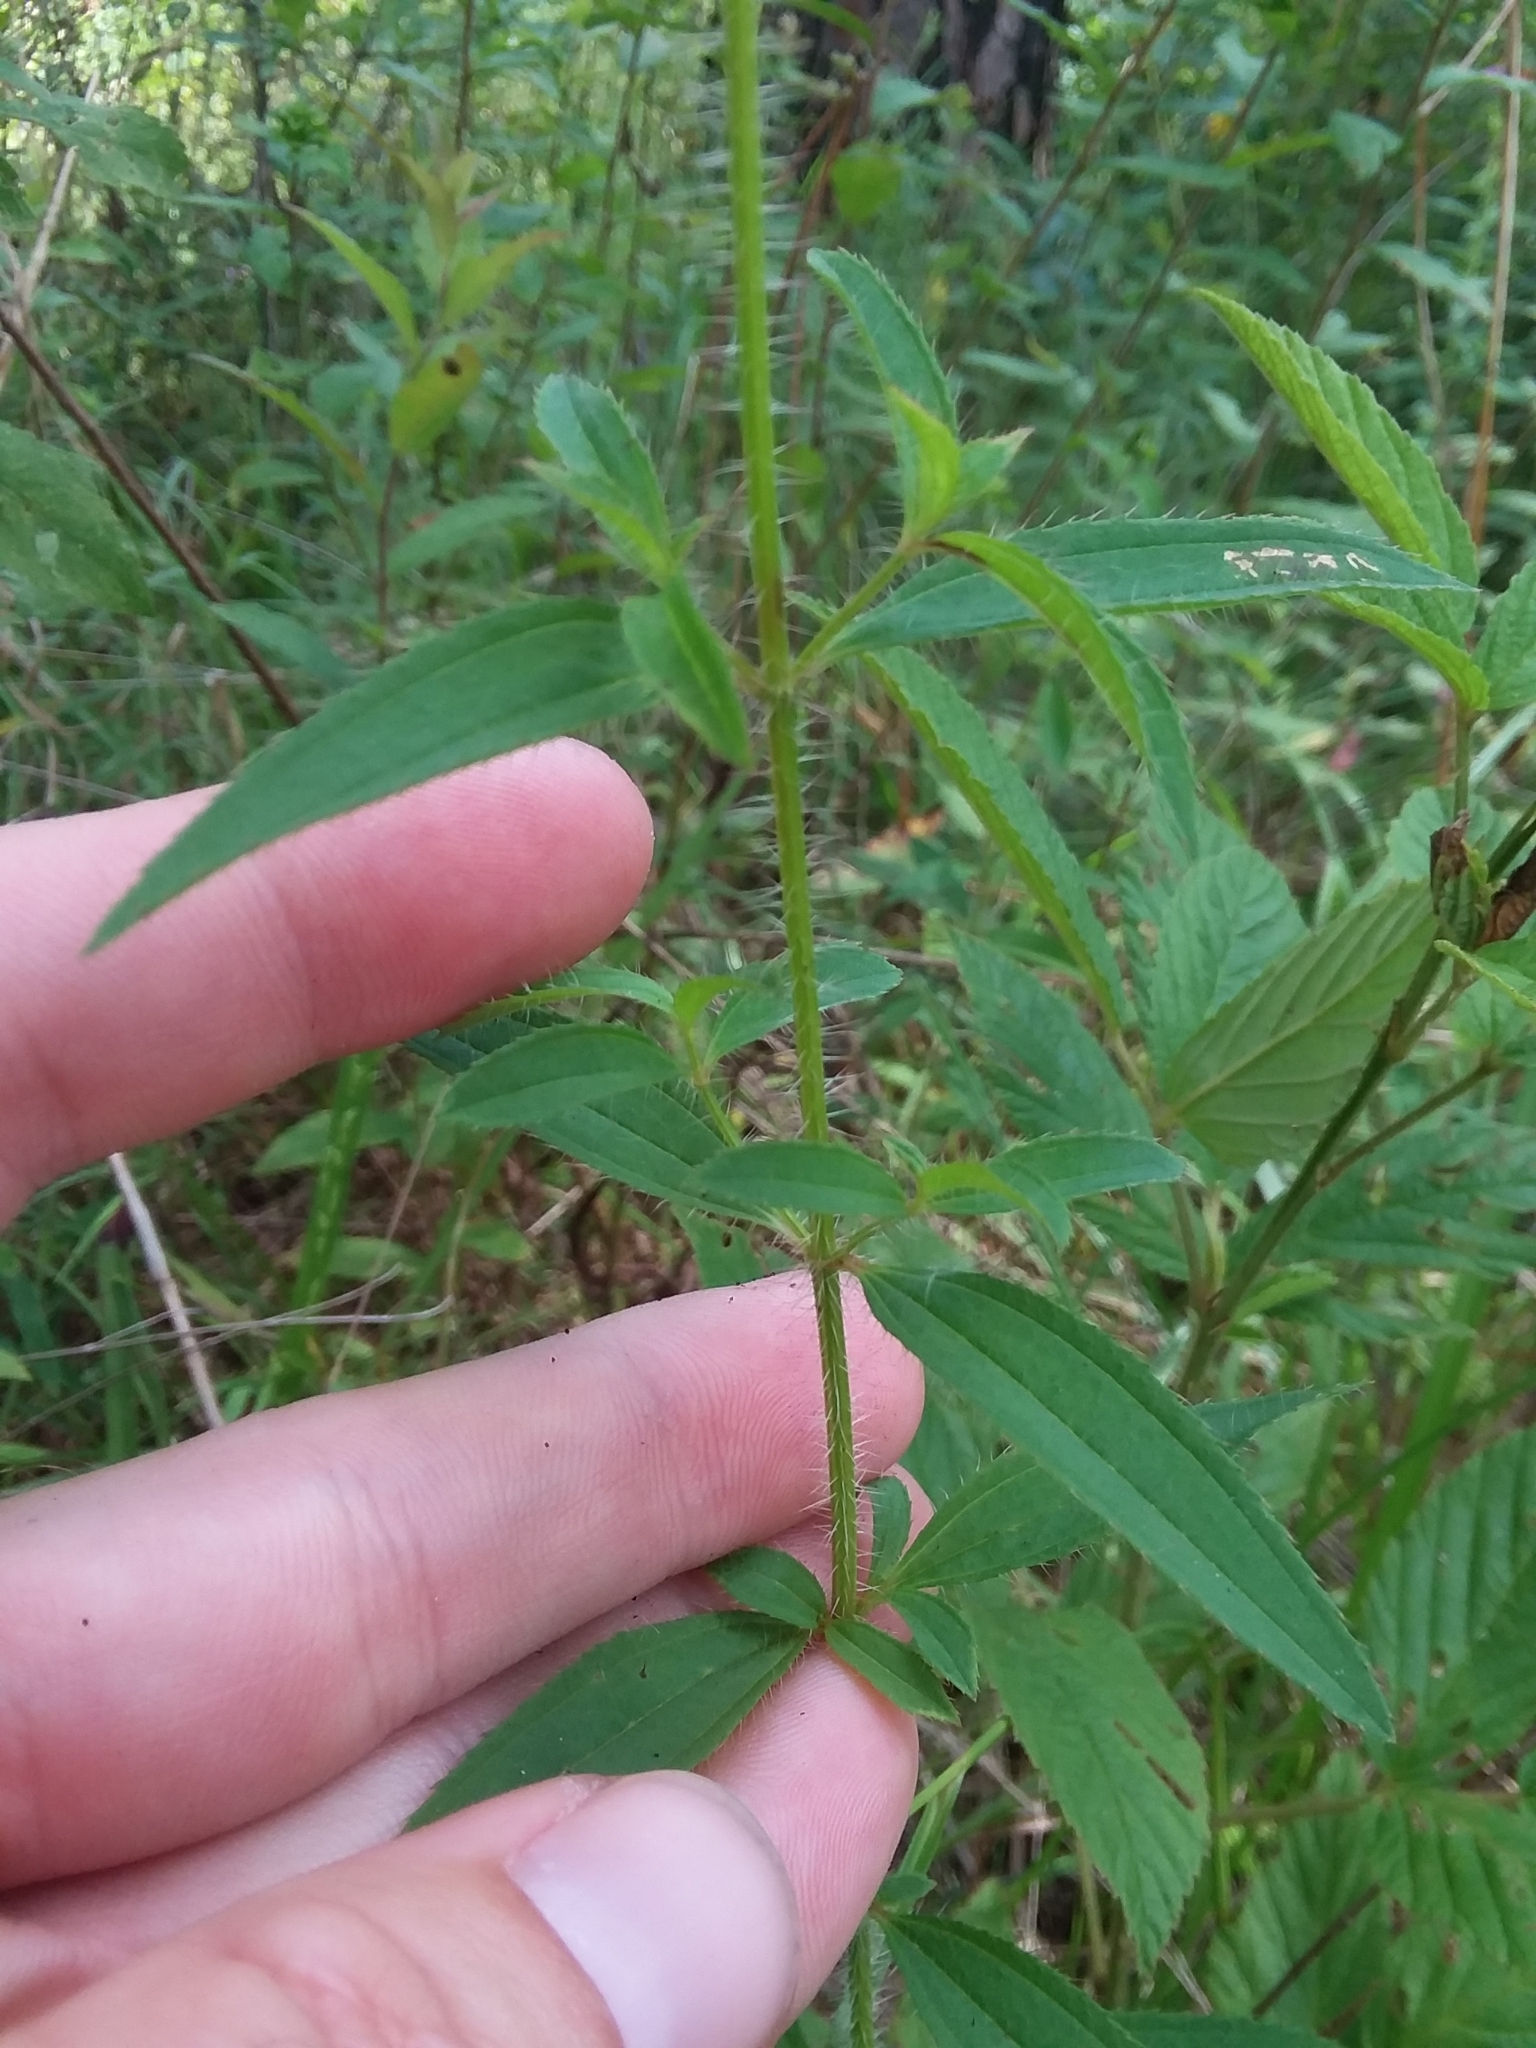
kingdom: Plantae
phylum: Tracheophyta
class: Magnoliopsida
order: Myrtales
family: Melastomataceae
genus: Rhexia
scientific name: Rhexia mariana
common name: Dull meadow-pitcher
